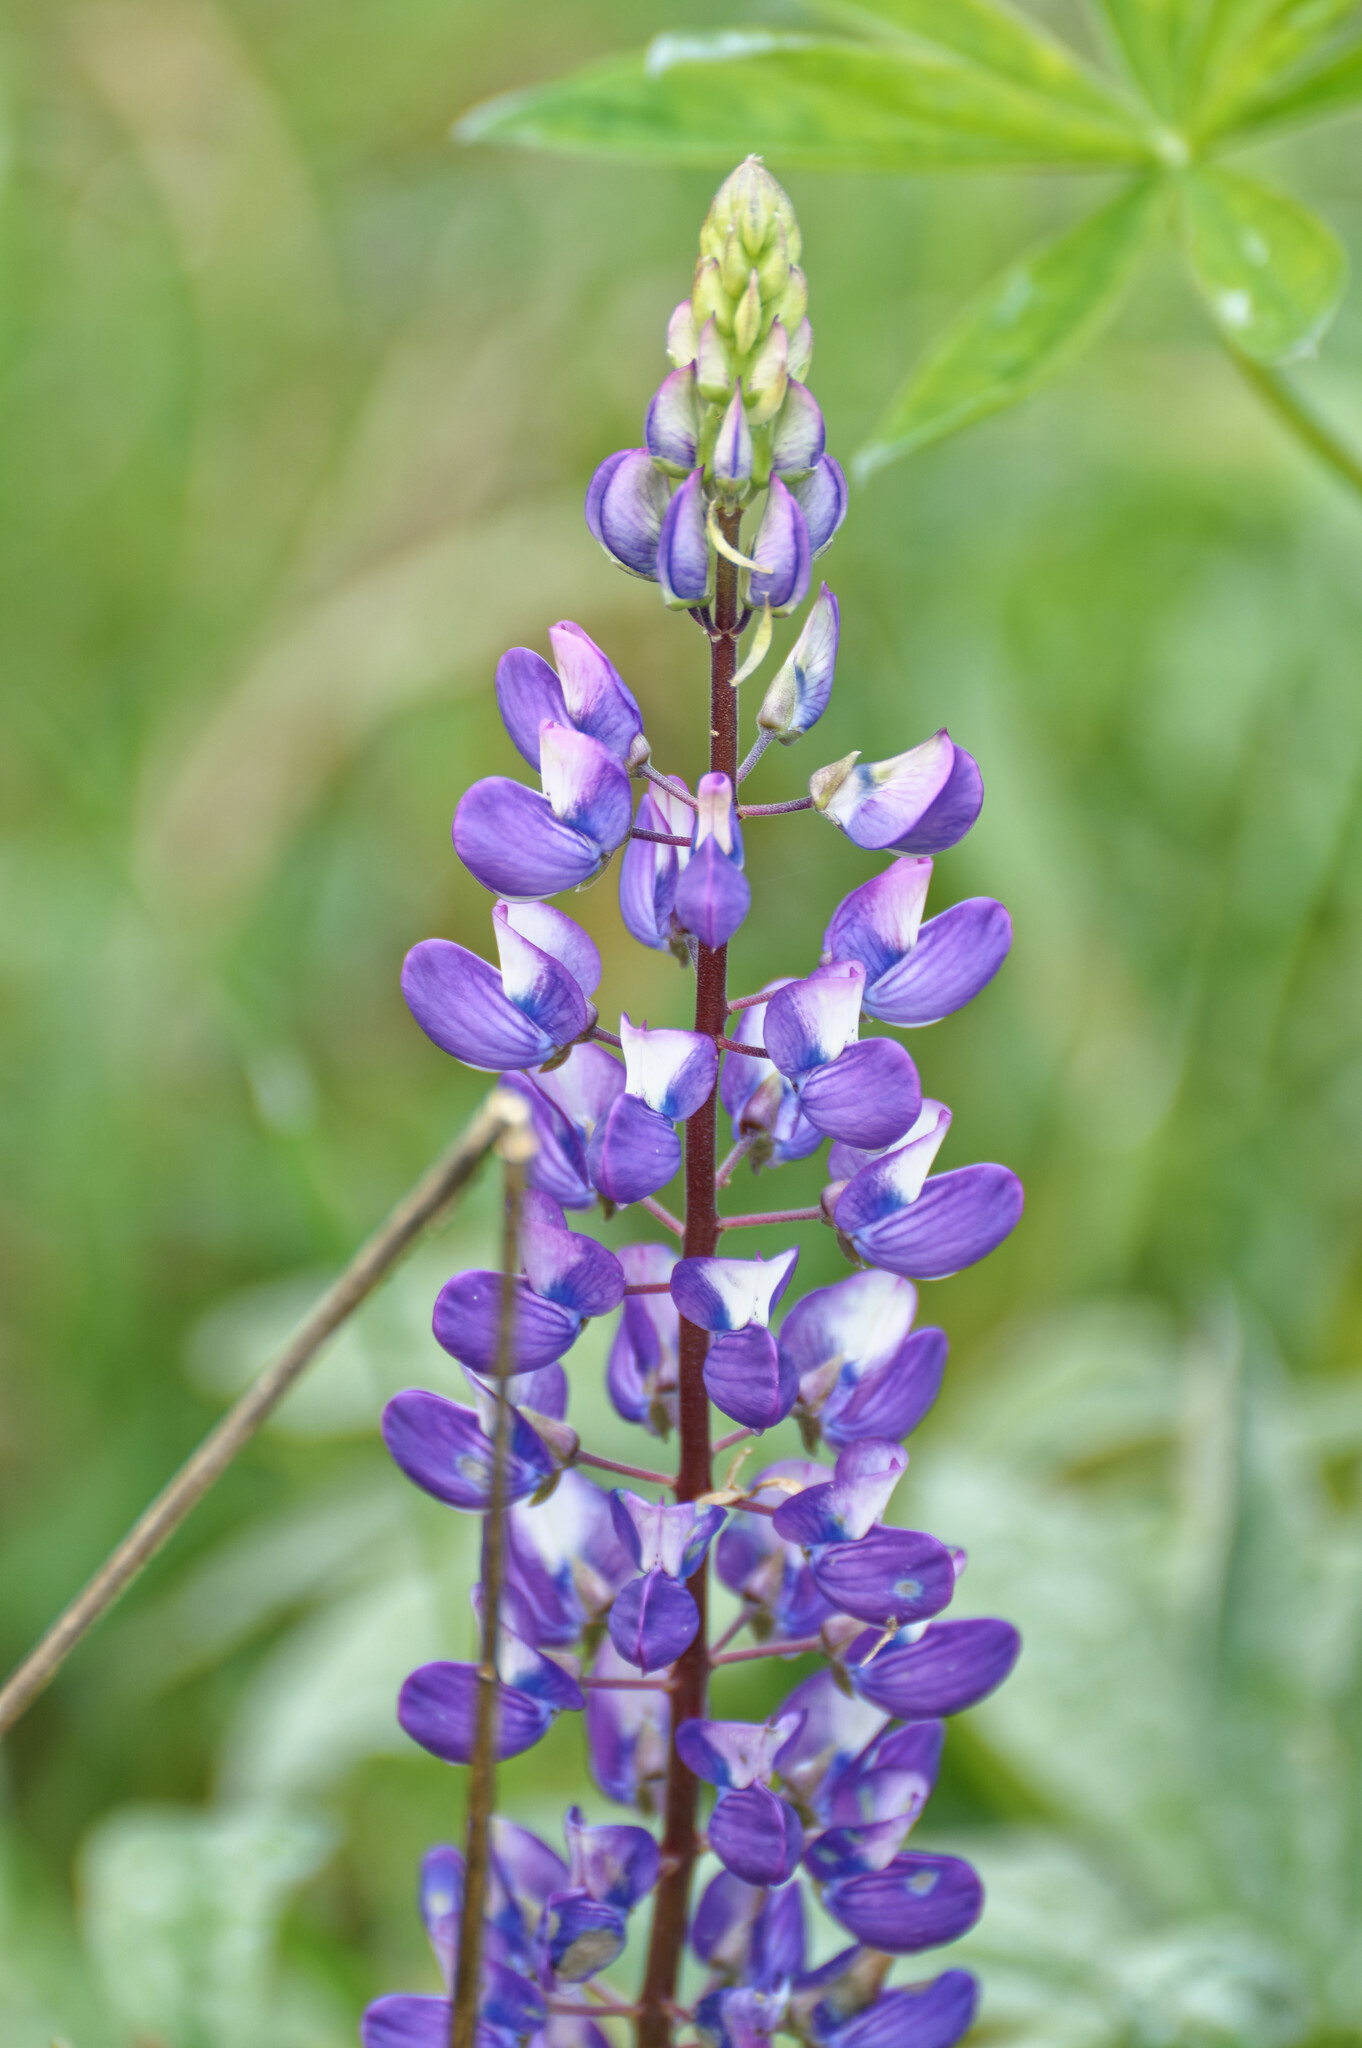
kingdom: Plantae
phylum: Tracheophyta
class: Magnoliopsida
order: Fabales
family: Fabaceae
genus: Lupinus
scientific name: Lupinus polyphyllus
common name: Garden lupin
